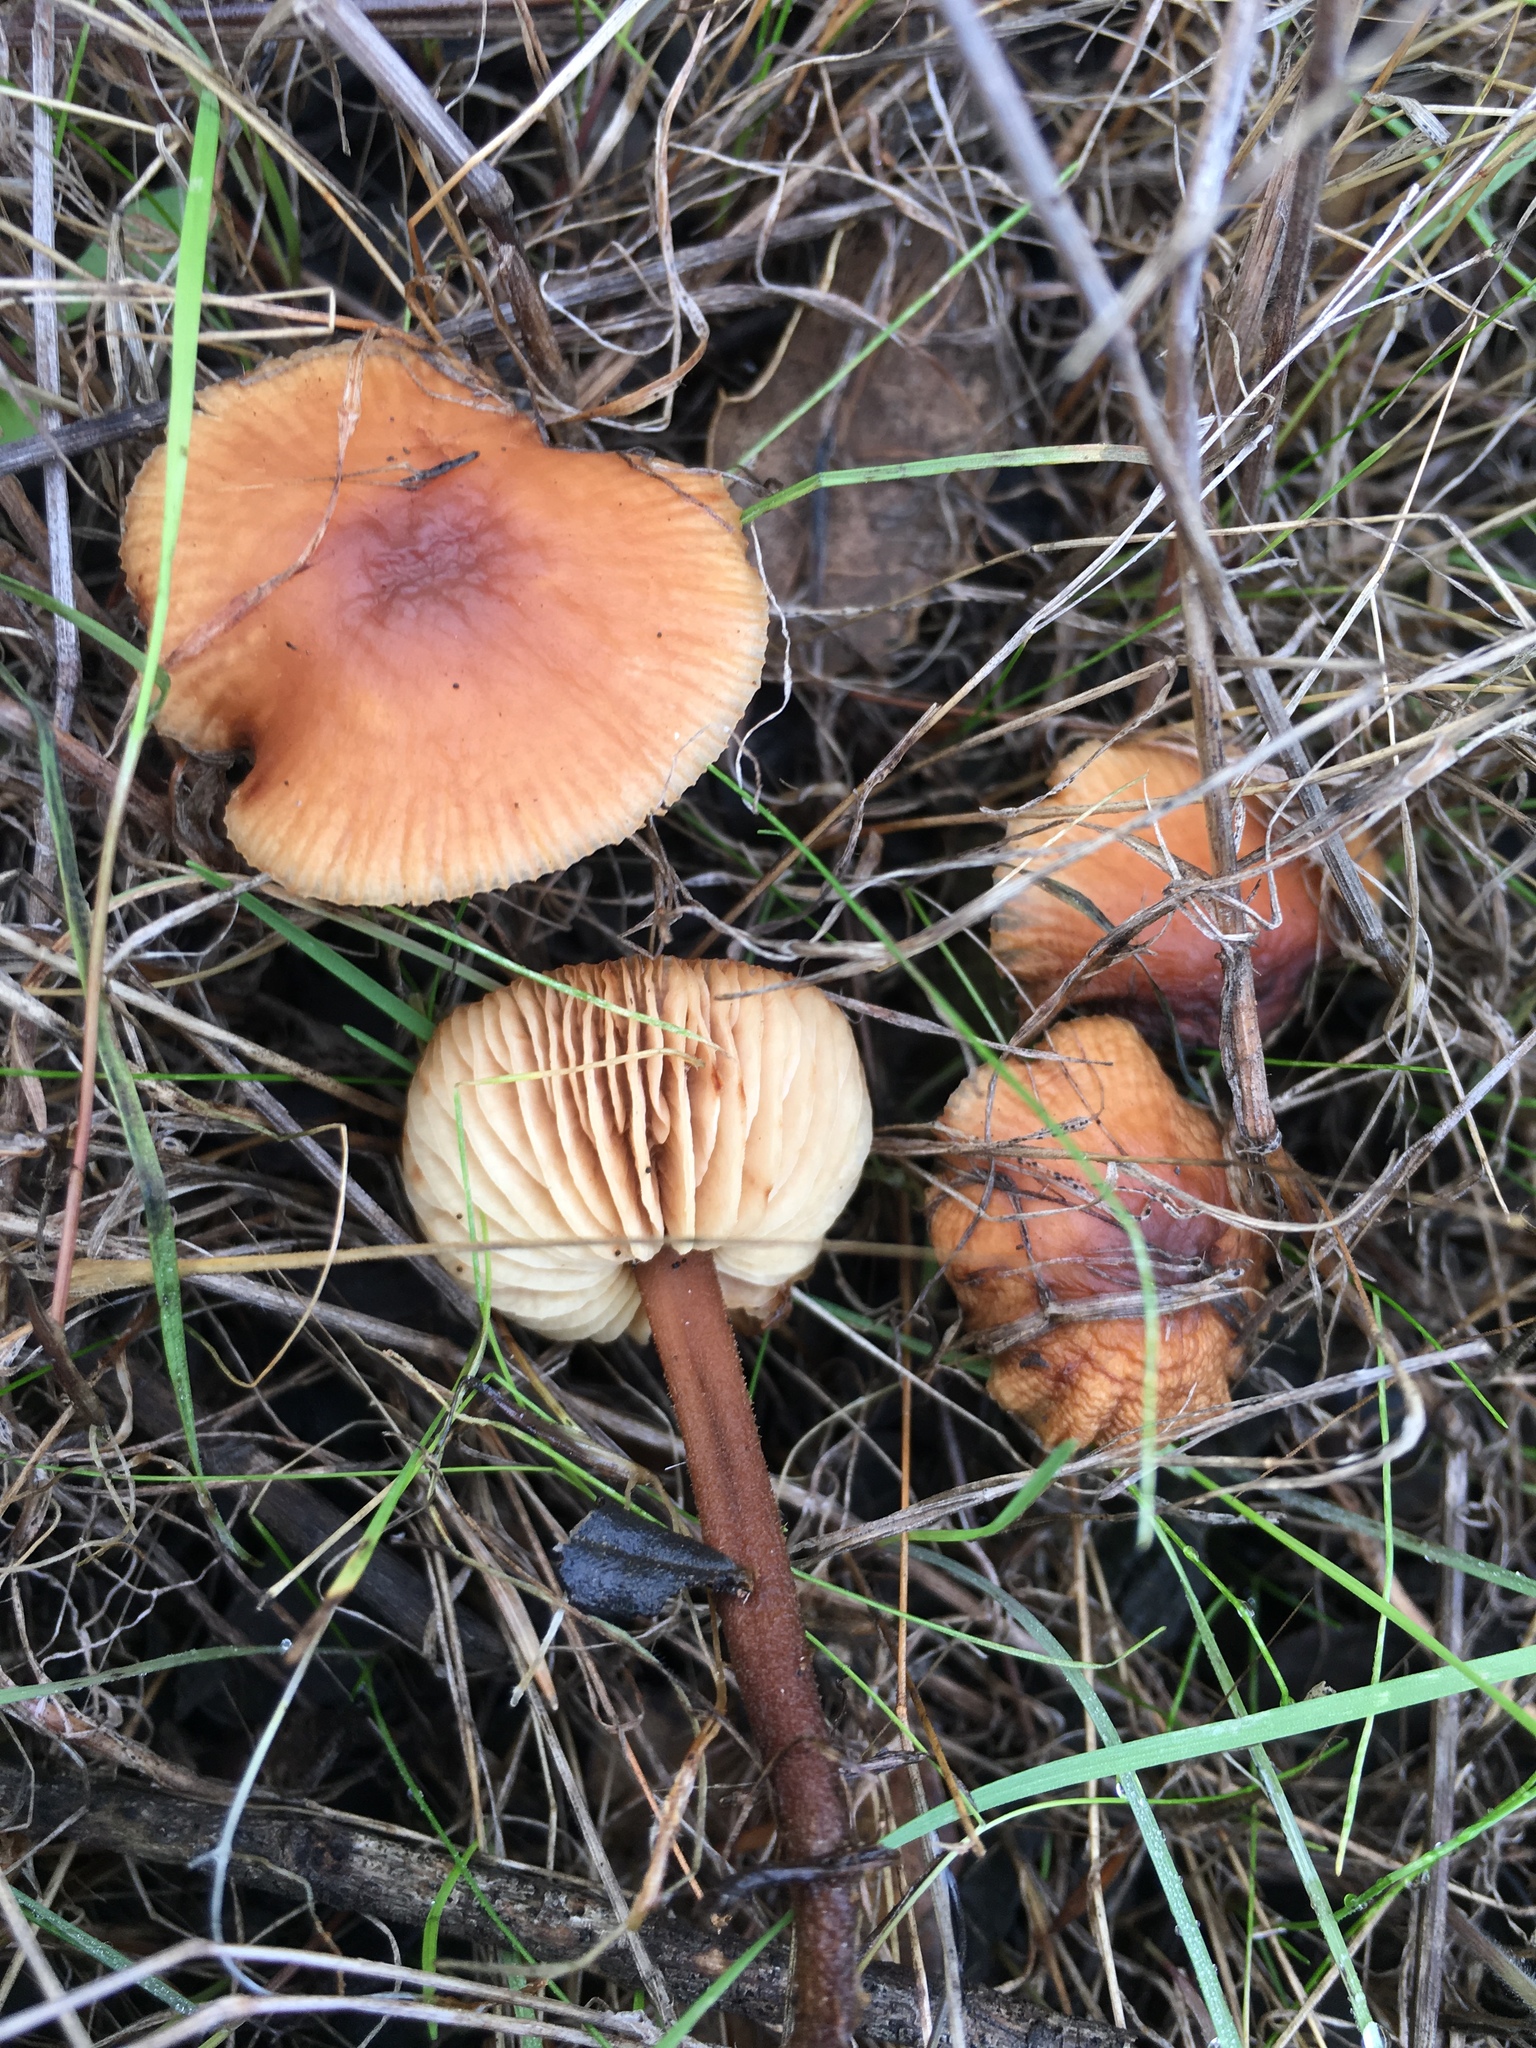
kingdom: Fungi
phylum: Basidiomycota
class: Agaricomycetes
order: Agaricales
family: Omphalotaceae
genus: Gymnopus
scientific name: Gymnopus dryophilus
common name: Penny top
